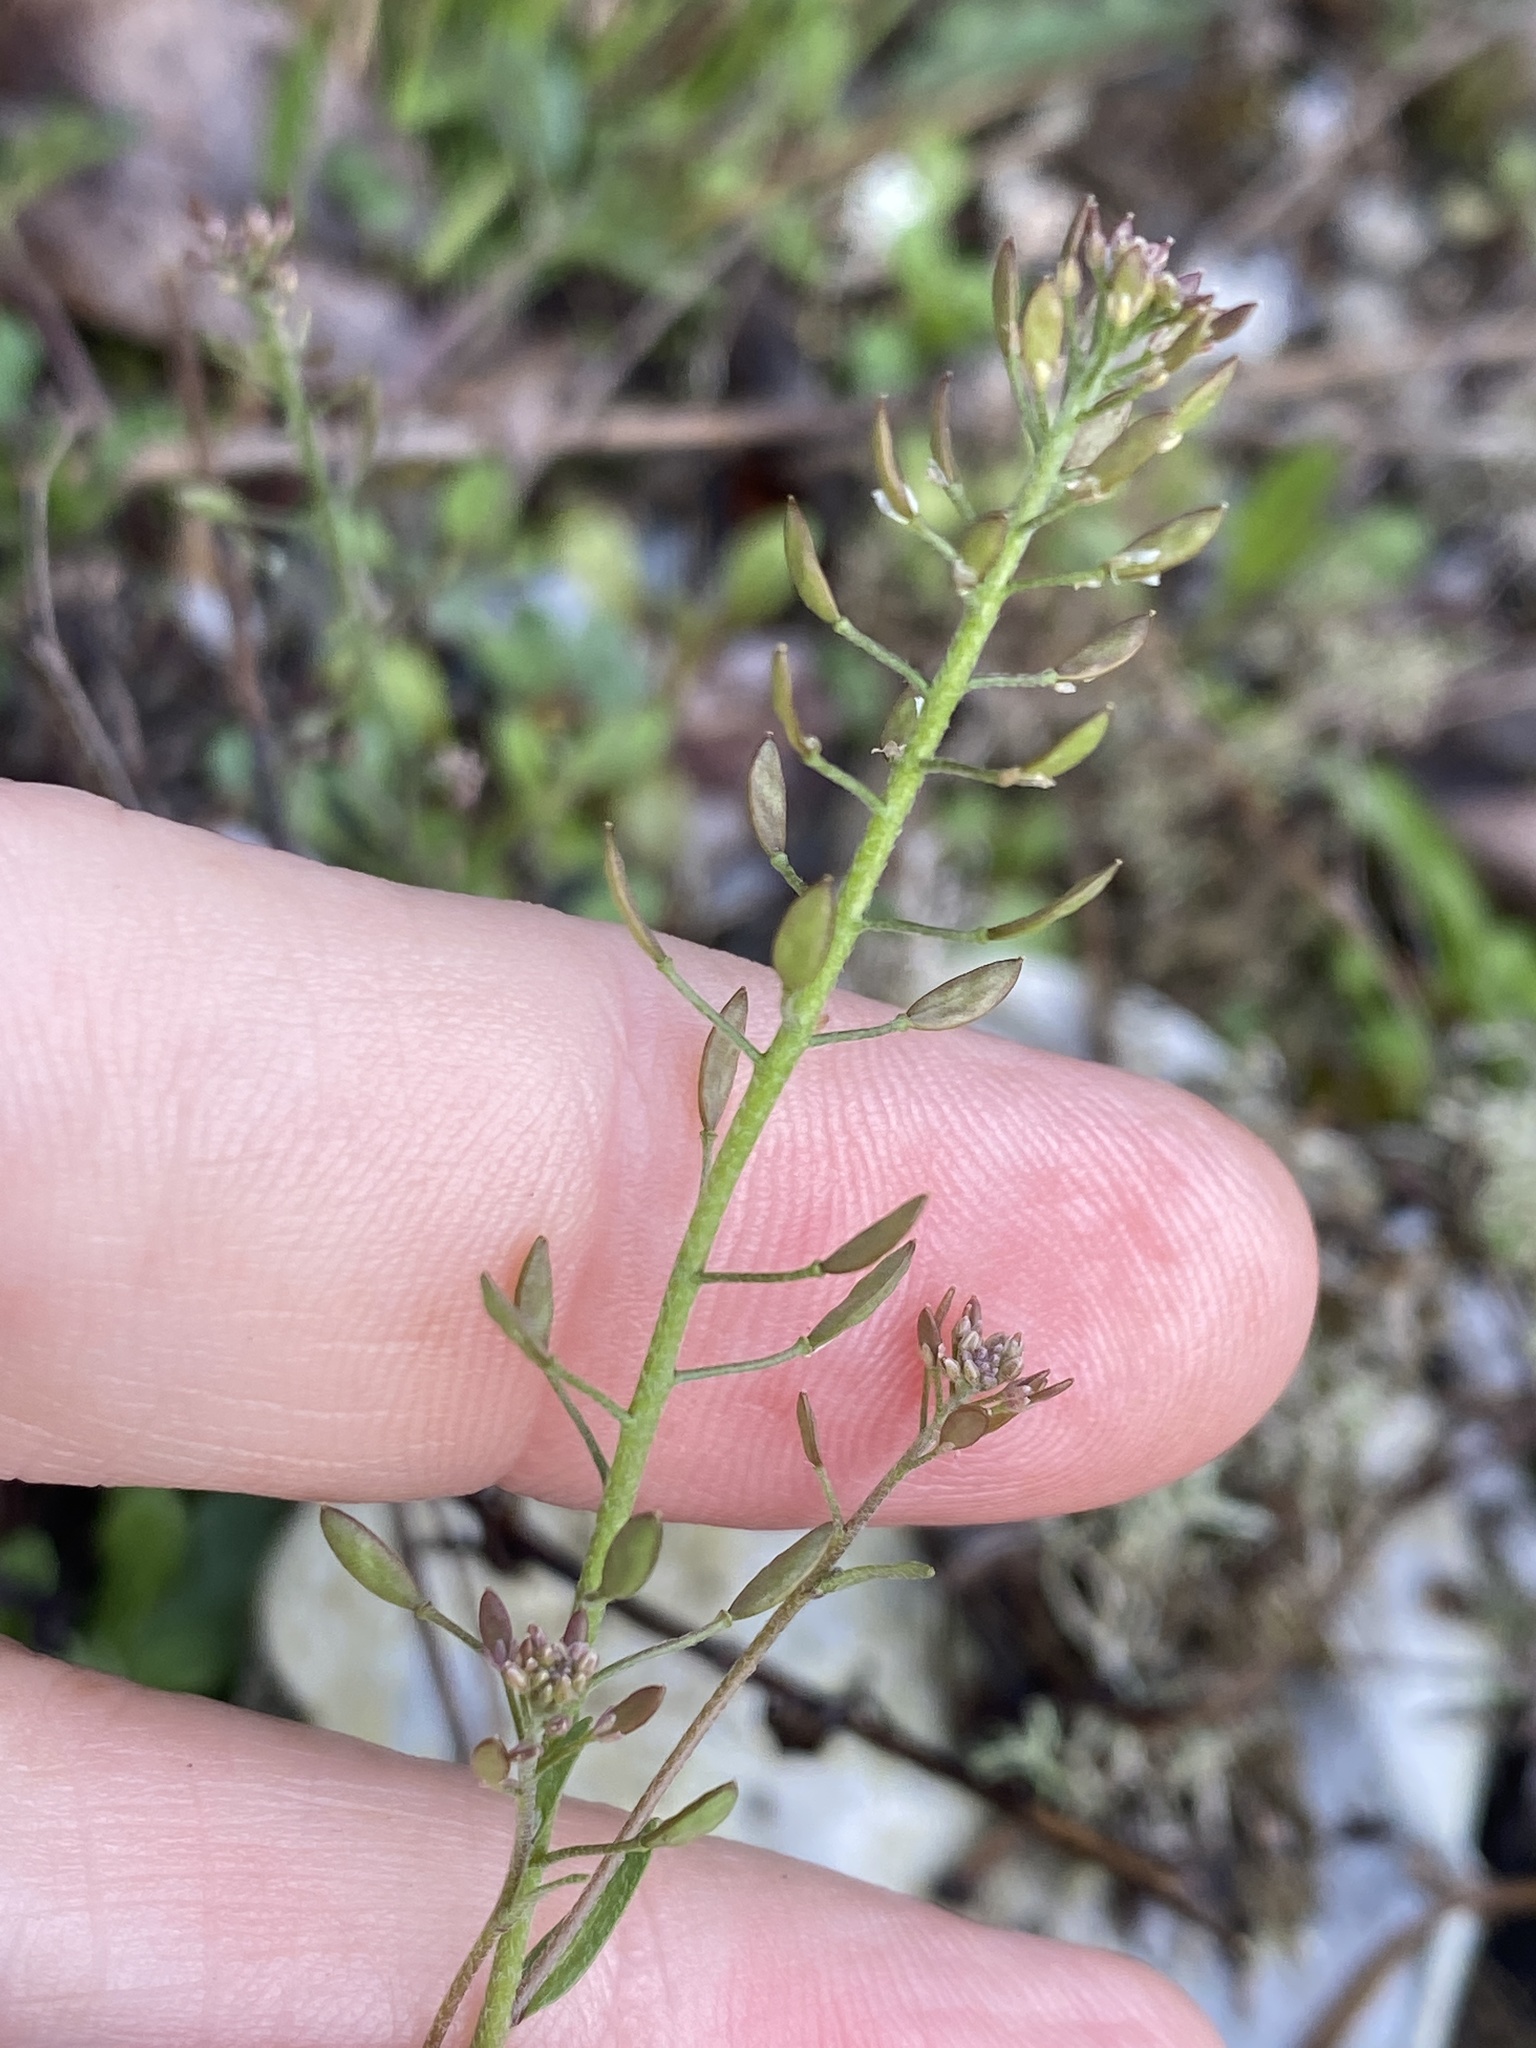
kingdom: Plantae
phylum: Tracheophyta
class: Magnoliopsida
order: Brassicales
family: Brassicaceae
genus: Abdra
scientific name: Abdra brachycarpa
